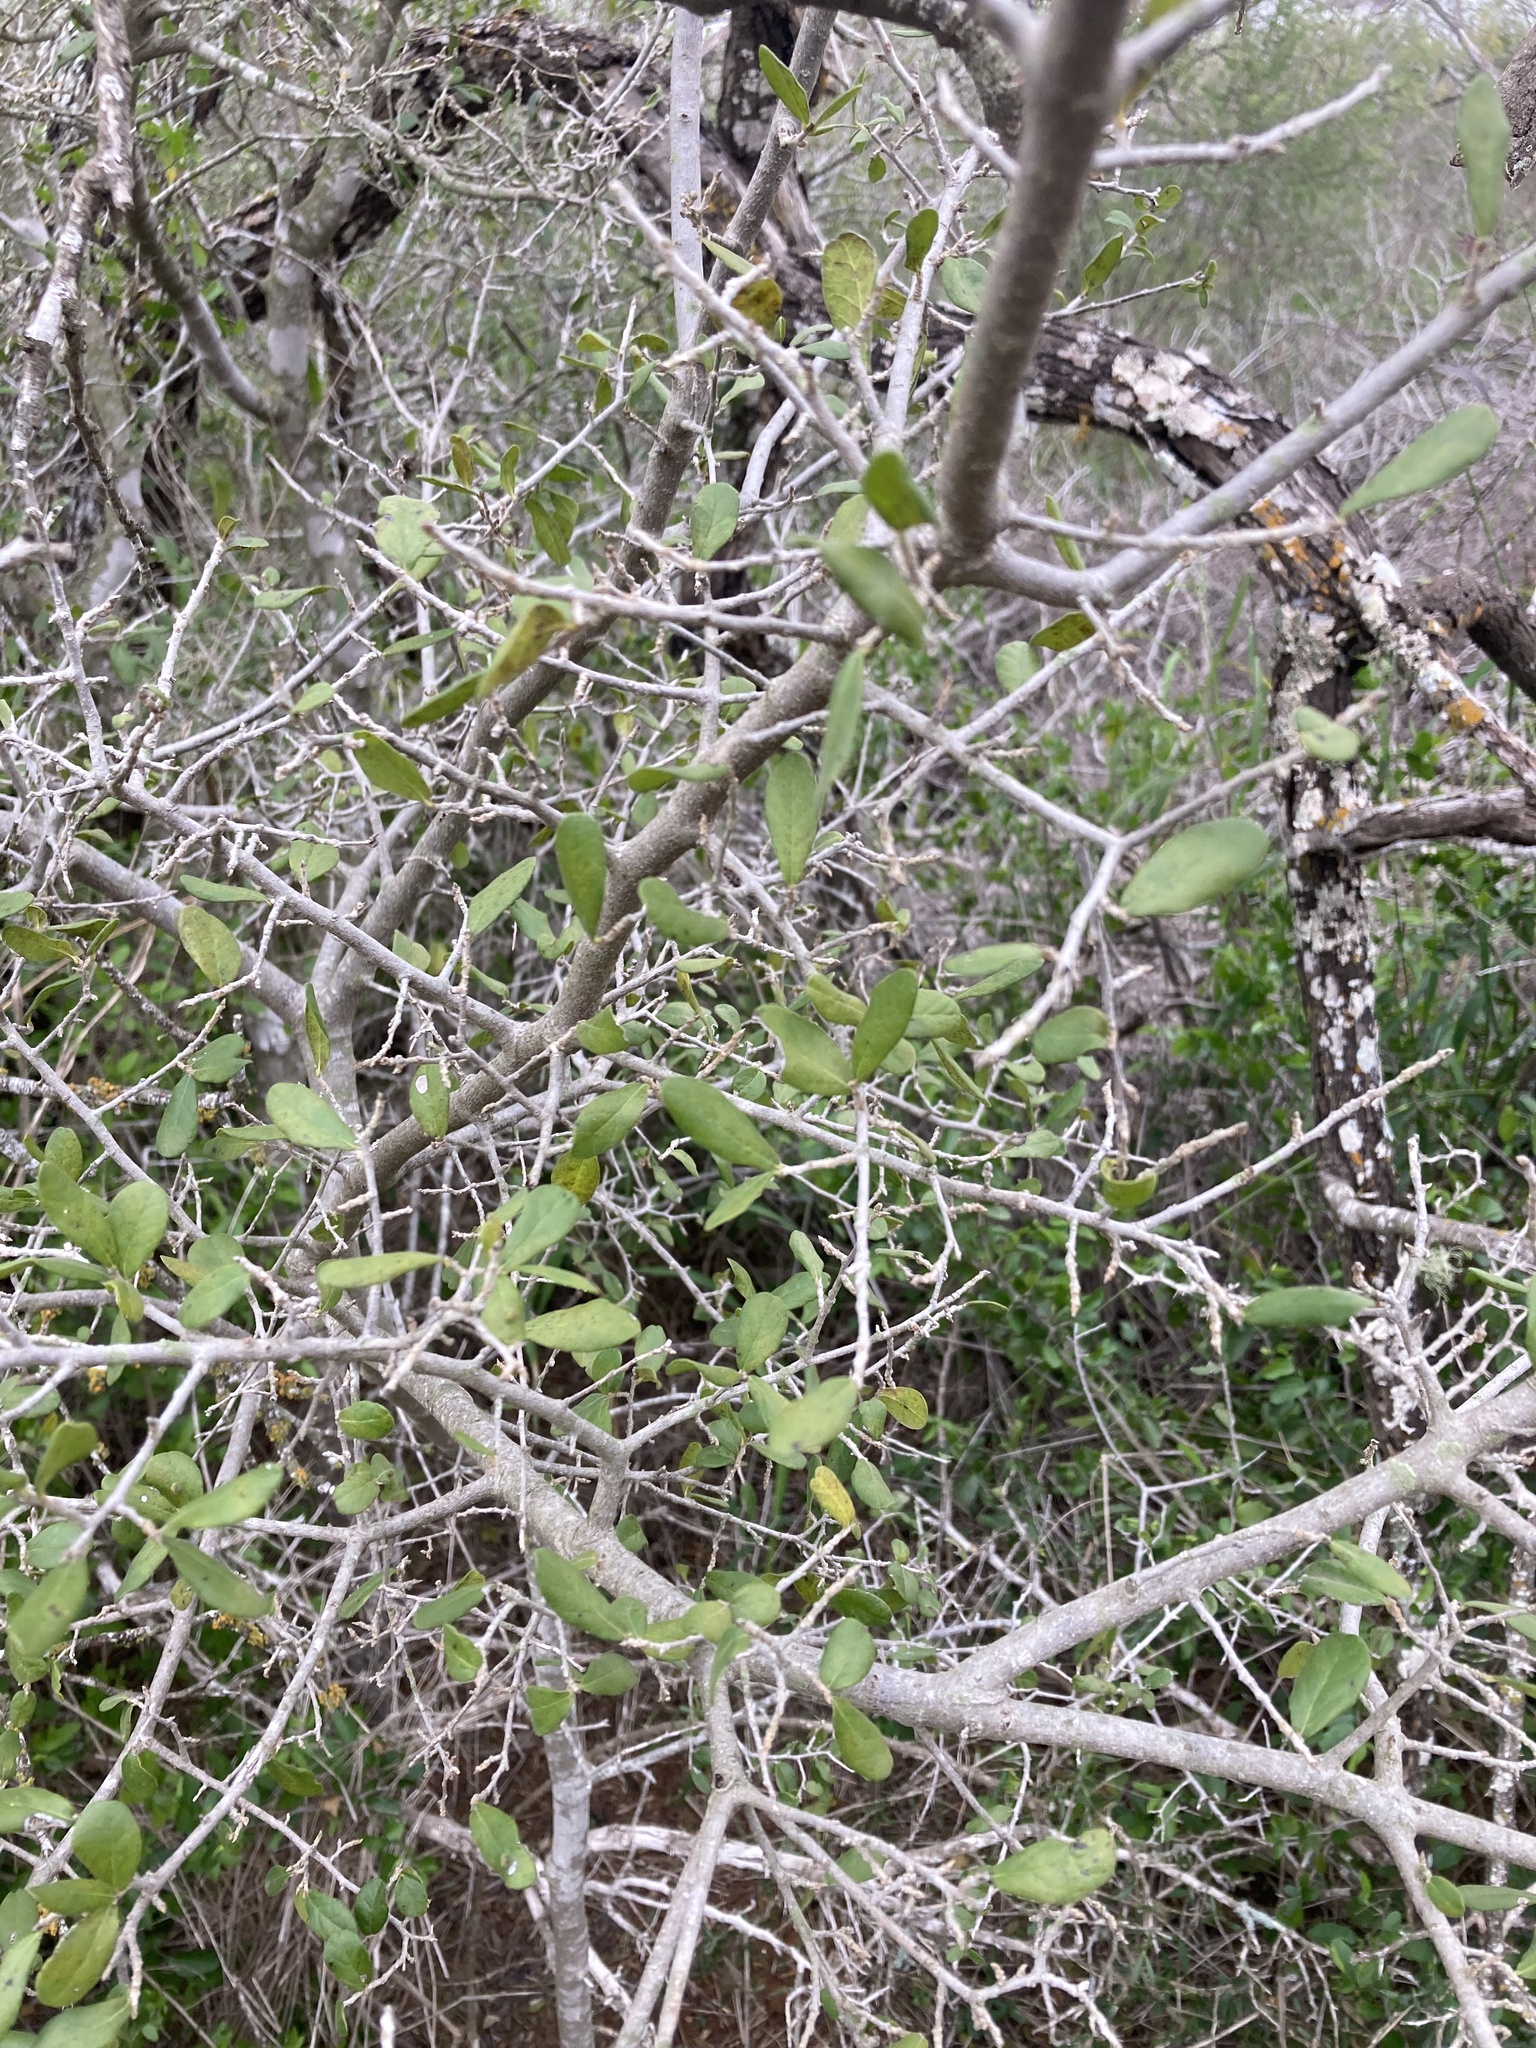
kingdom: Plantae
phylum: Tracheophyta
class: Magnoliopsida
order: Ericales
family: Ebenaceae
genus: Diospyros
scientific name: Diospyros texana
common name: Texas persimmon
